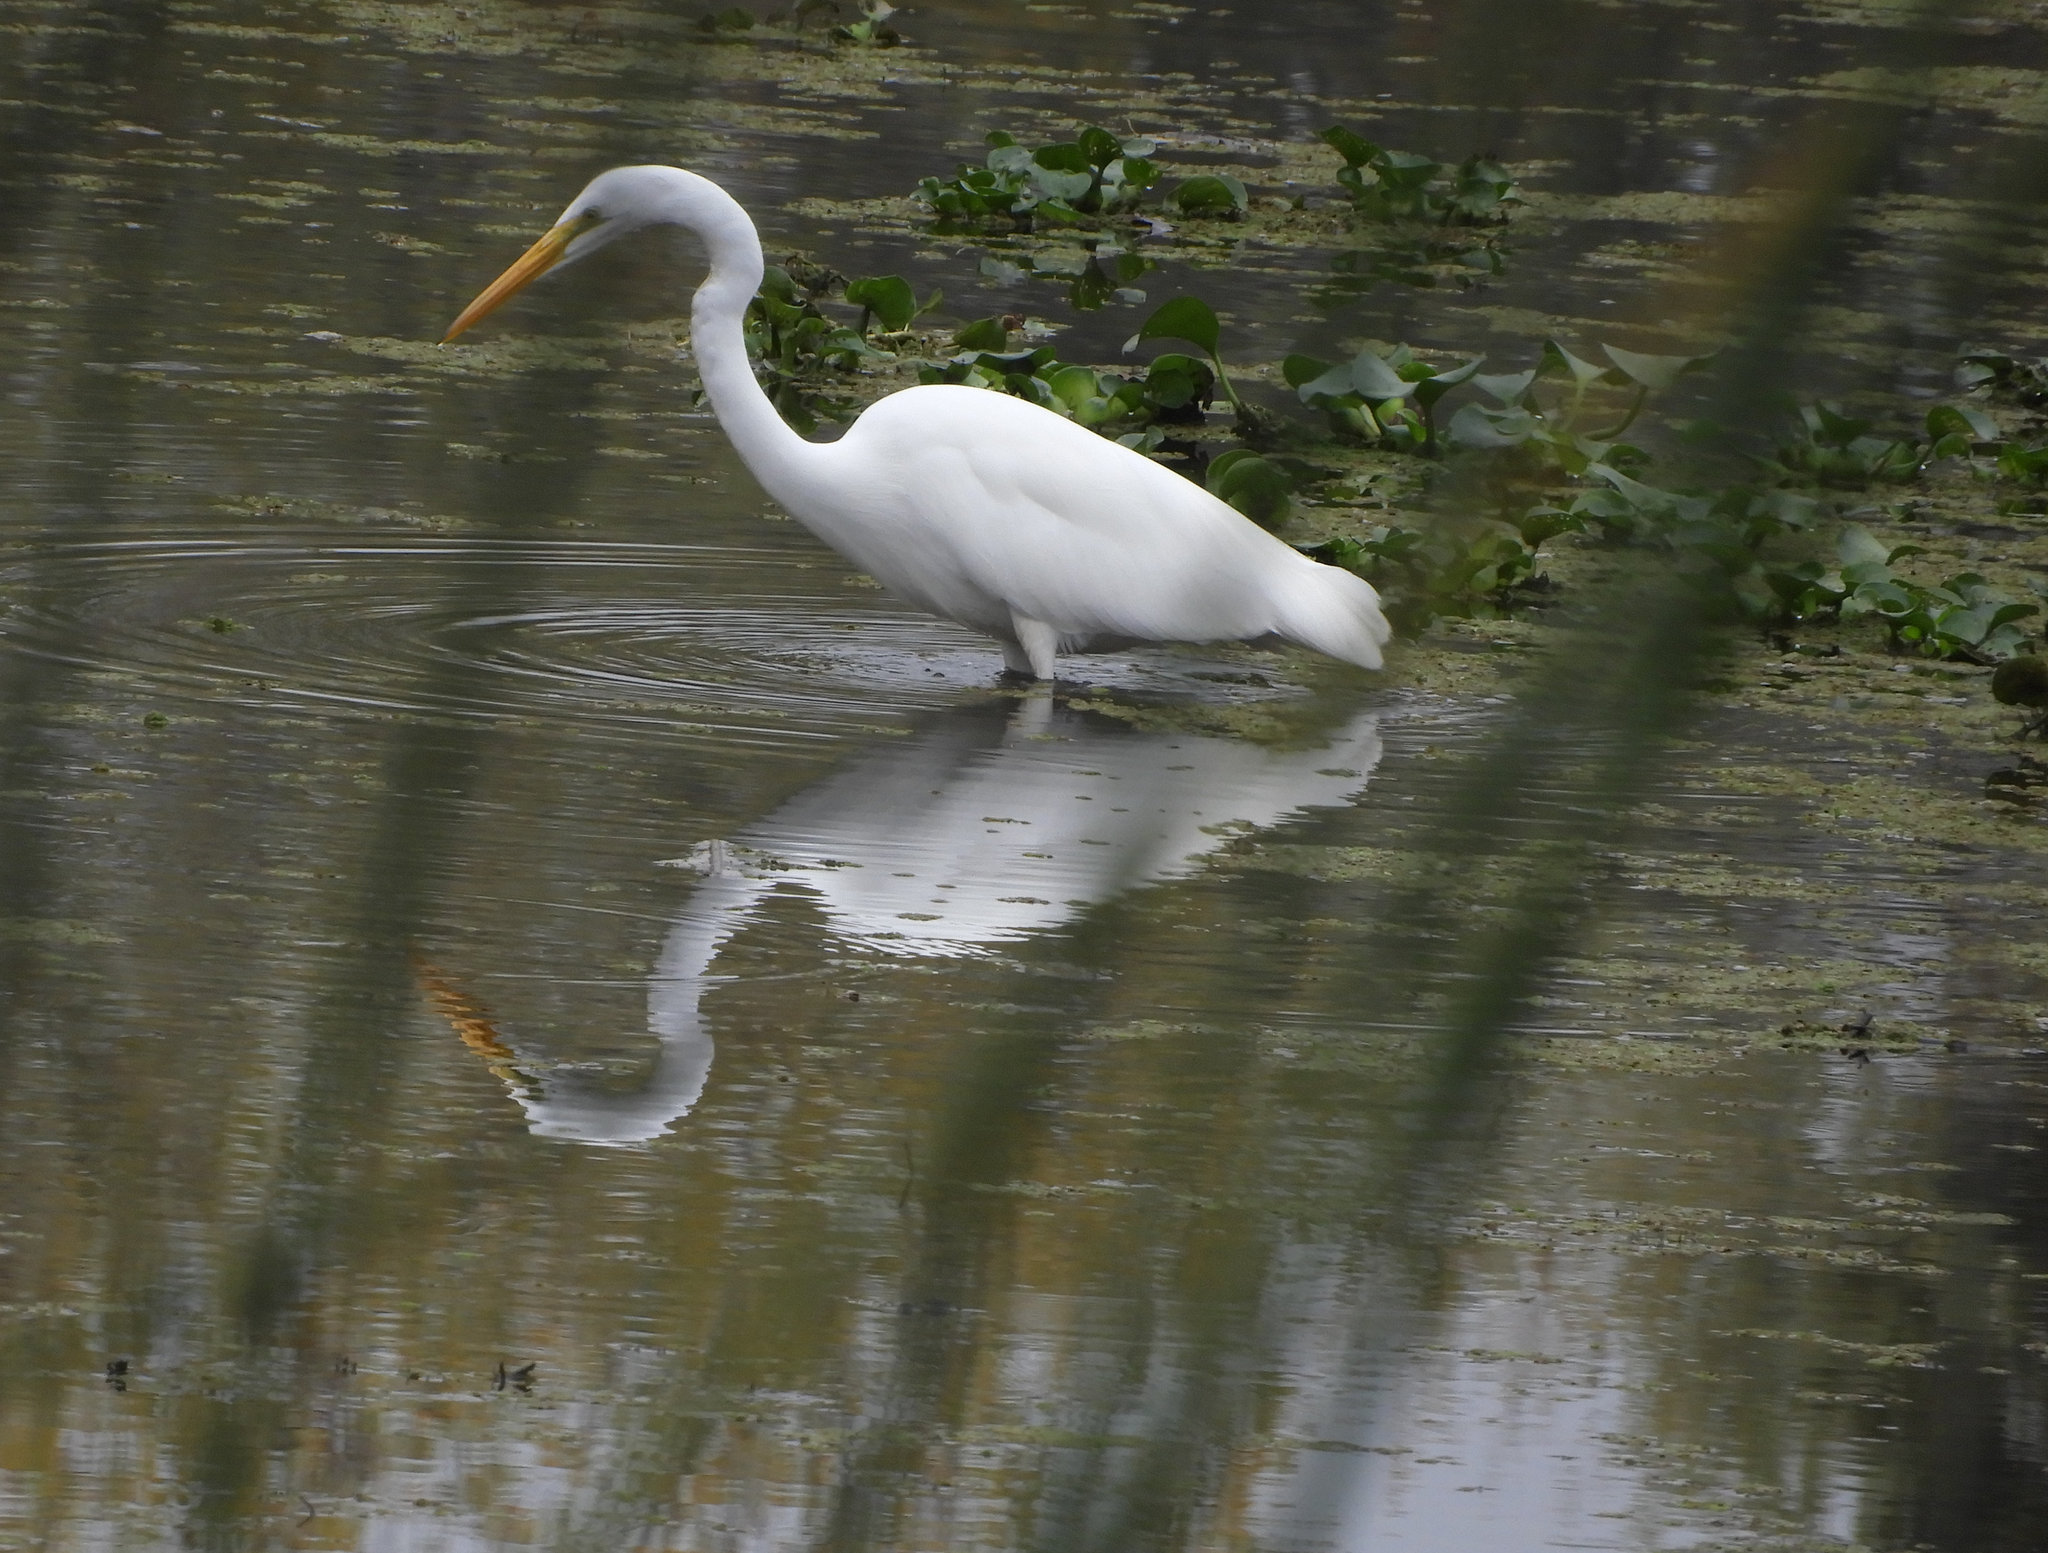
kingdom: Animalia
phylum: Chordata
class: Aves
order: Pelecaniformes
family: Ardeidae
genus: Ardea
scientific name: Ardea alba
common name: Great egret
